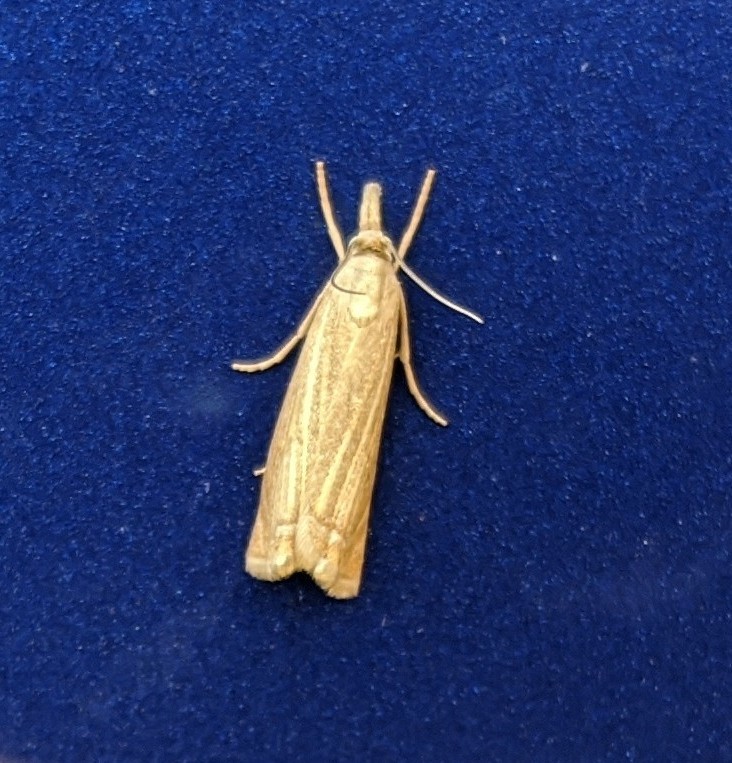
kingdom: Animalia
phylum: Arthropoda
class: Insecta
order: Lepidoptera
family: Crambidae
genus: Chrysoteuchia
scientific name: Chrysoteuchia culmella
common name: Garden grass-veneer
